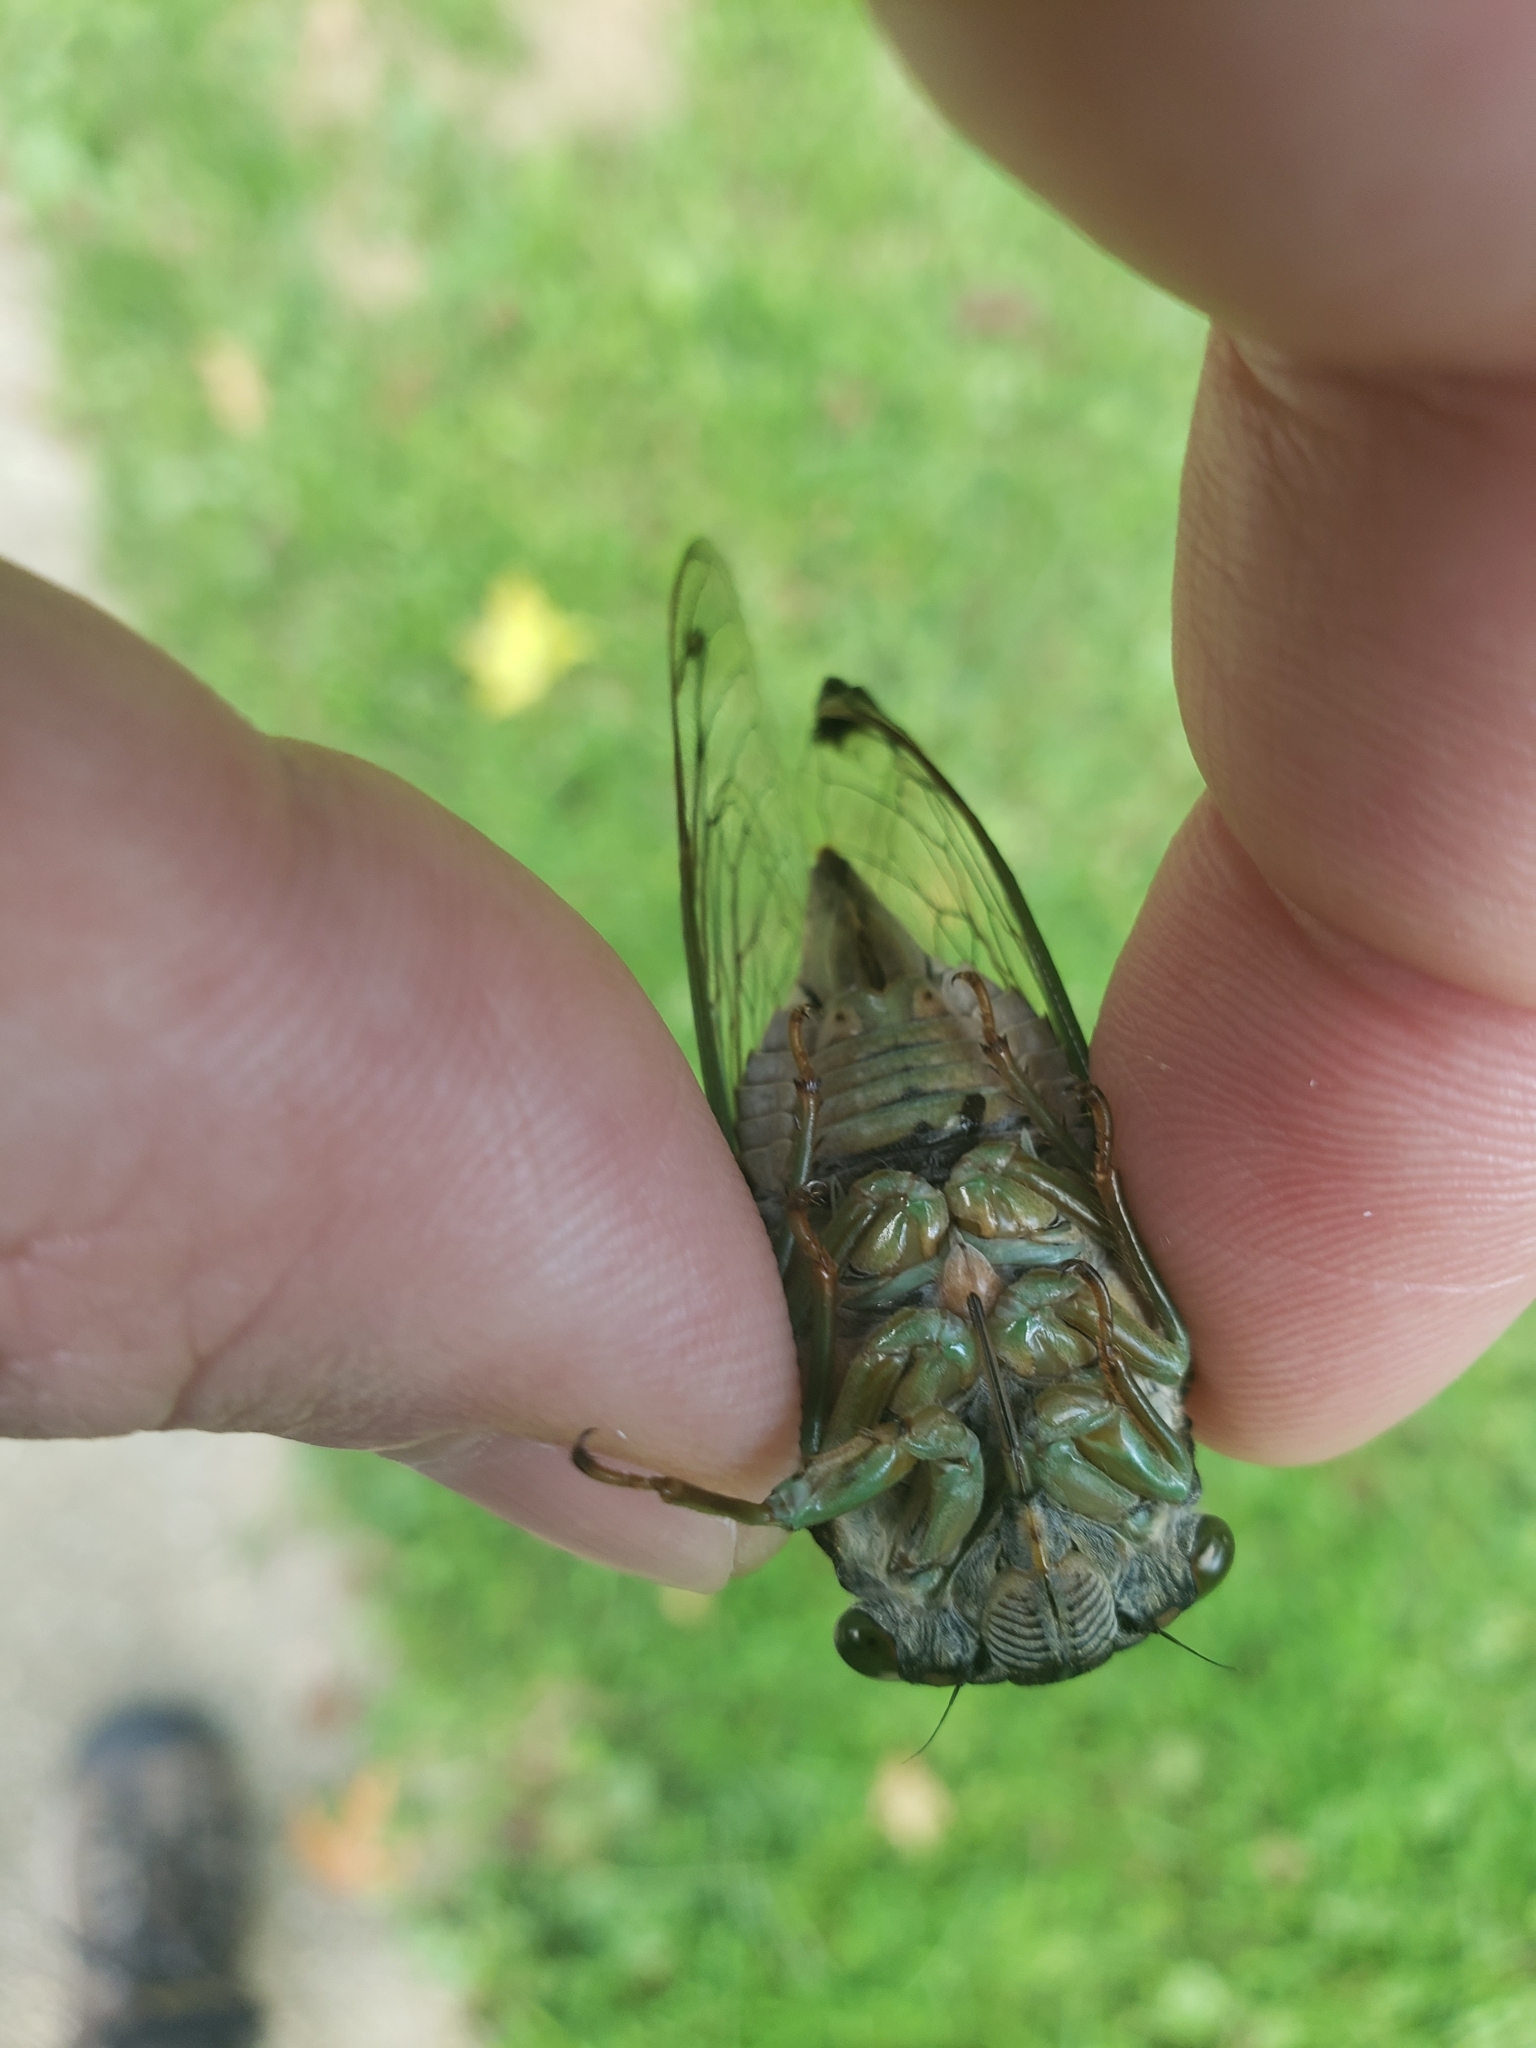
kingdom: Animalia
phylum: Arthropoda
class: Insecta
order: Hemiptera
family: Cicadidae
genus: Neotibicen
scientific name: Neotibicen tibicen
